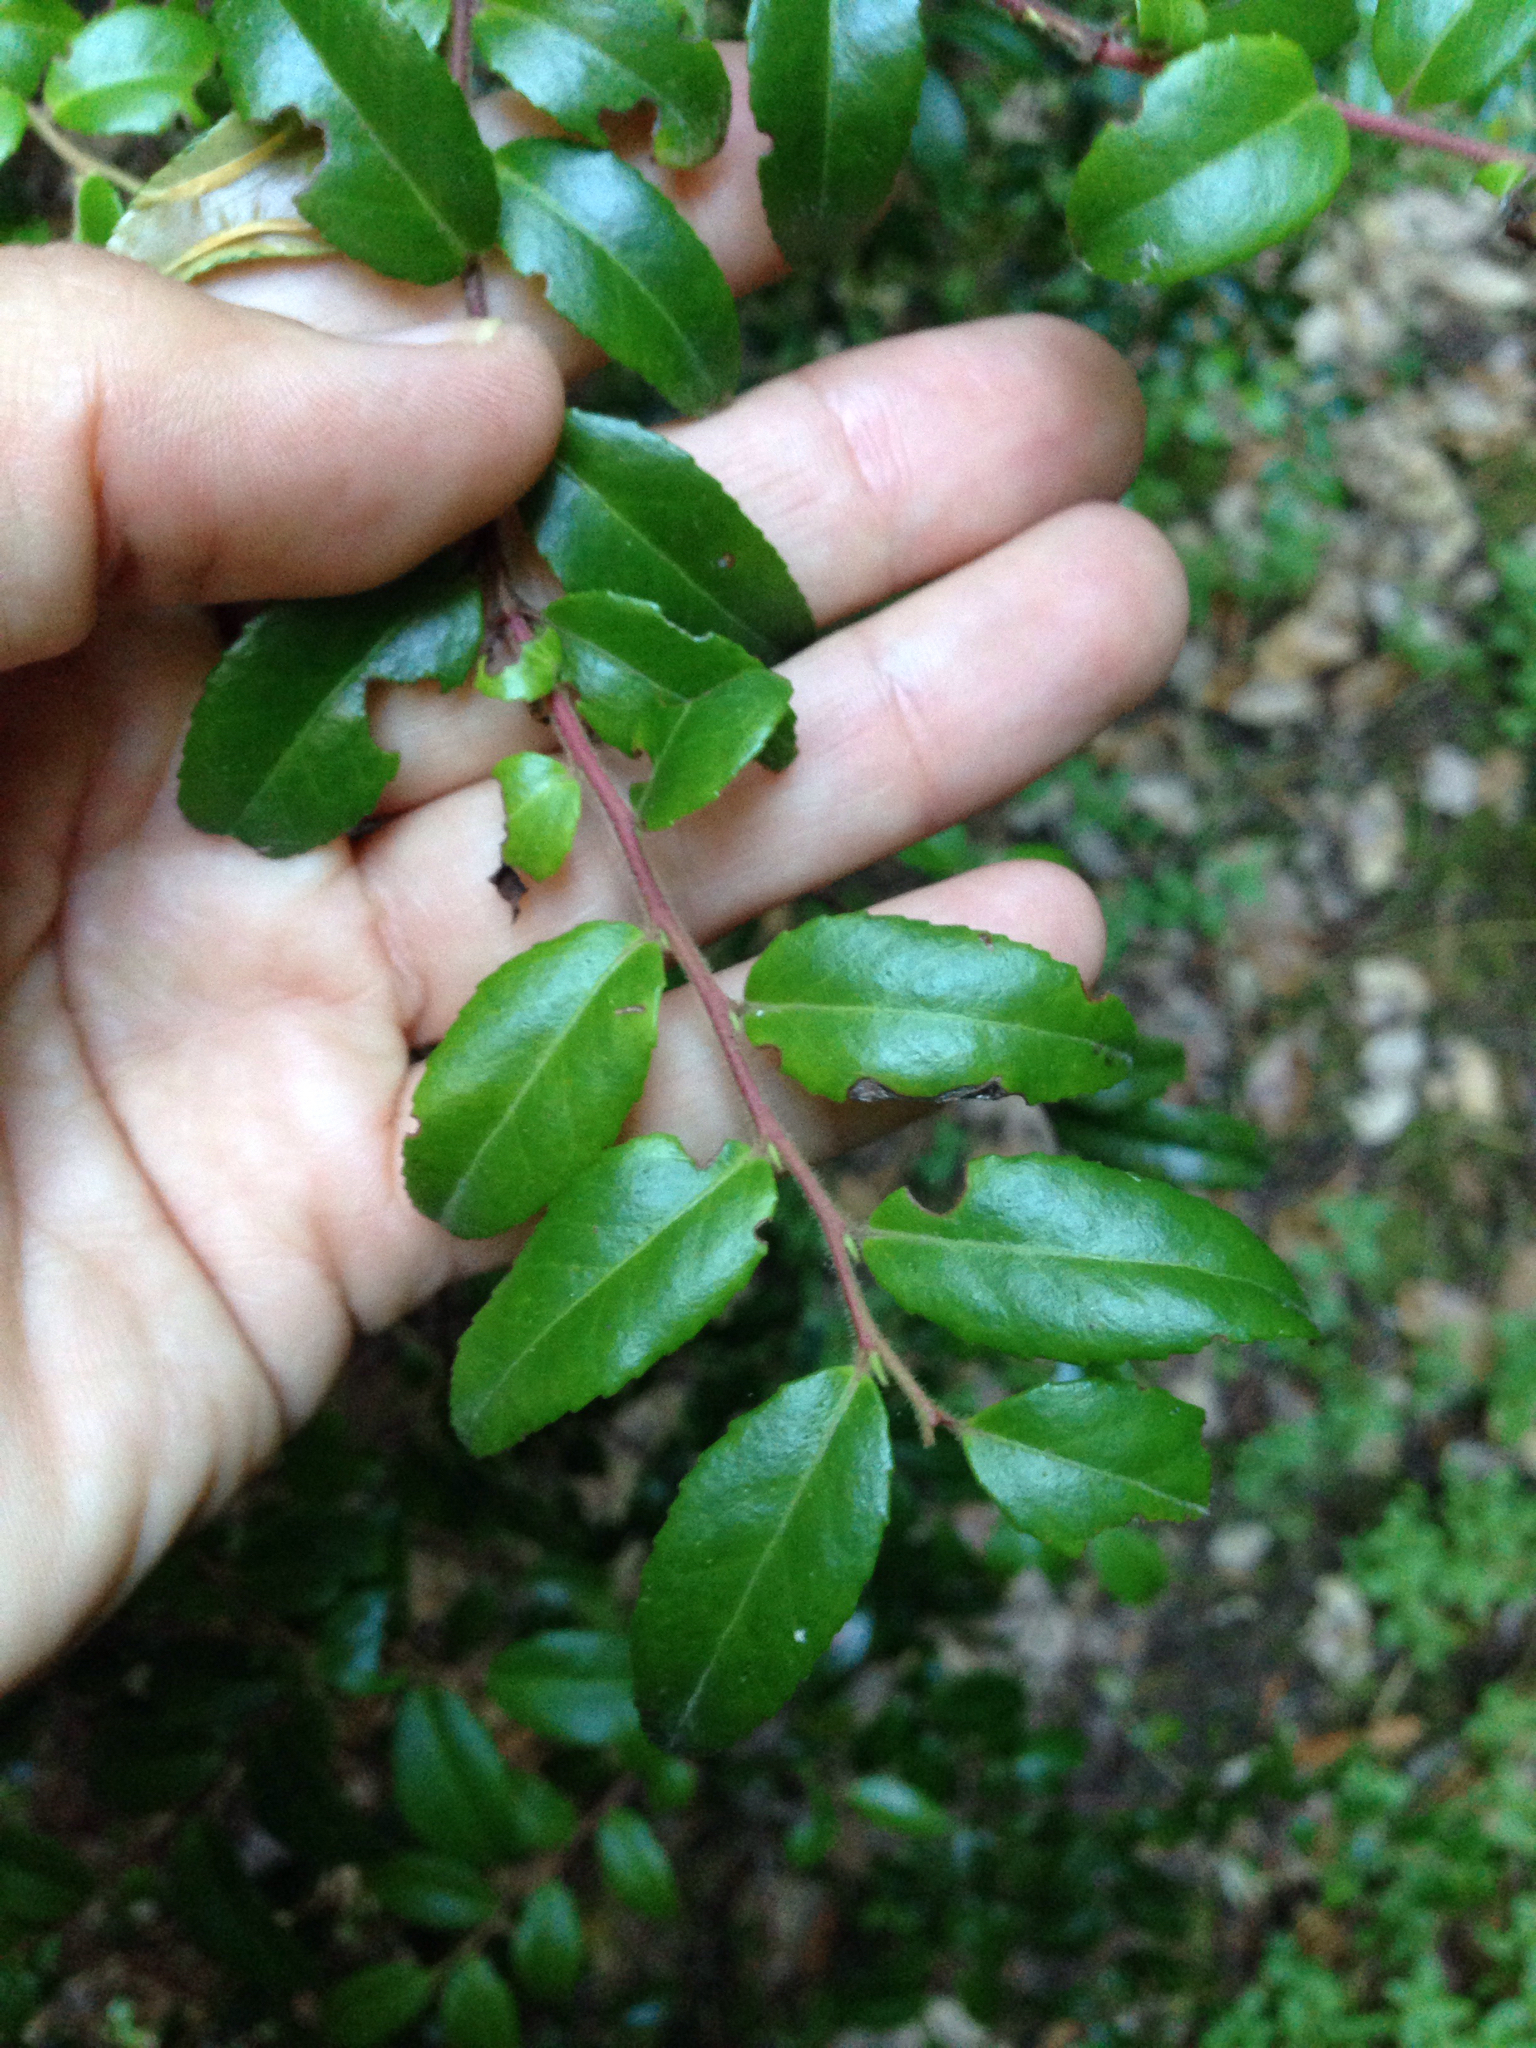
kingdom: Plantae
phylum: Tracheophyta
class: Magnoliopsida
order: Ericales
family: Ericaceae
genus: Vaccinium
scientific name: Vaccinium ovatum
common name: California-huckleberry
